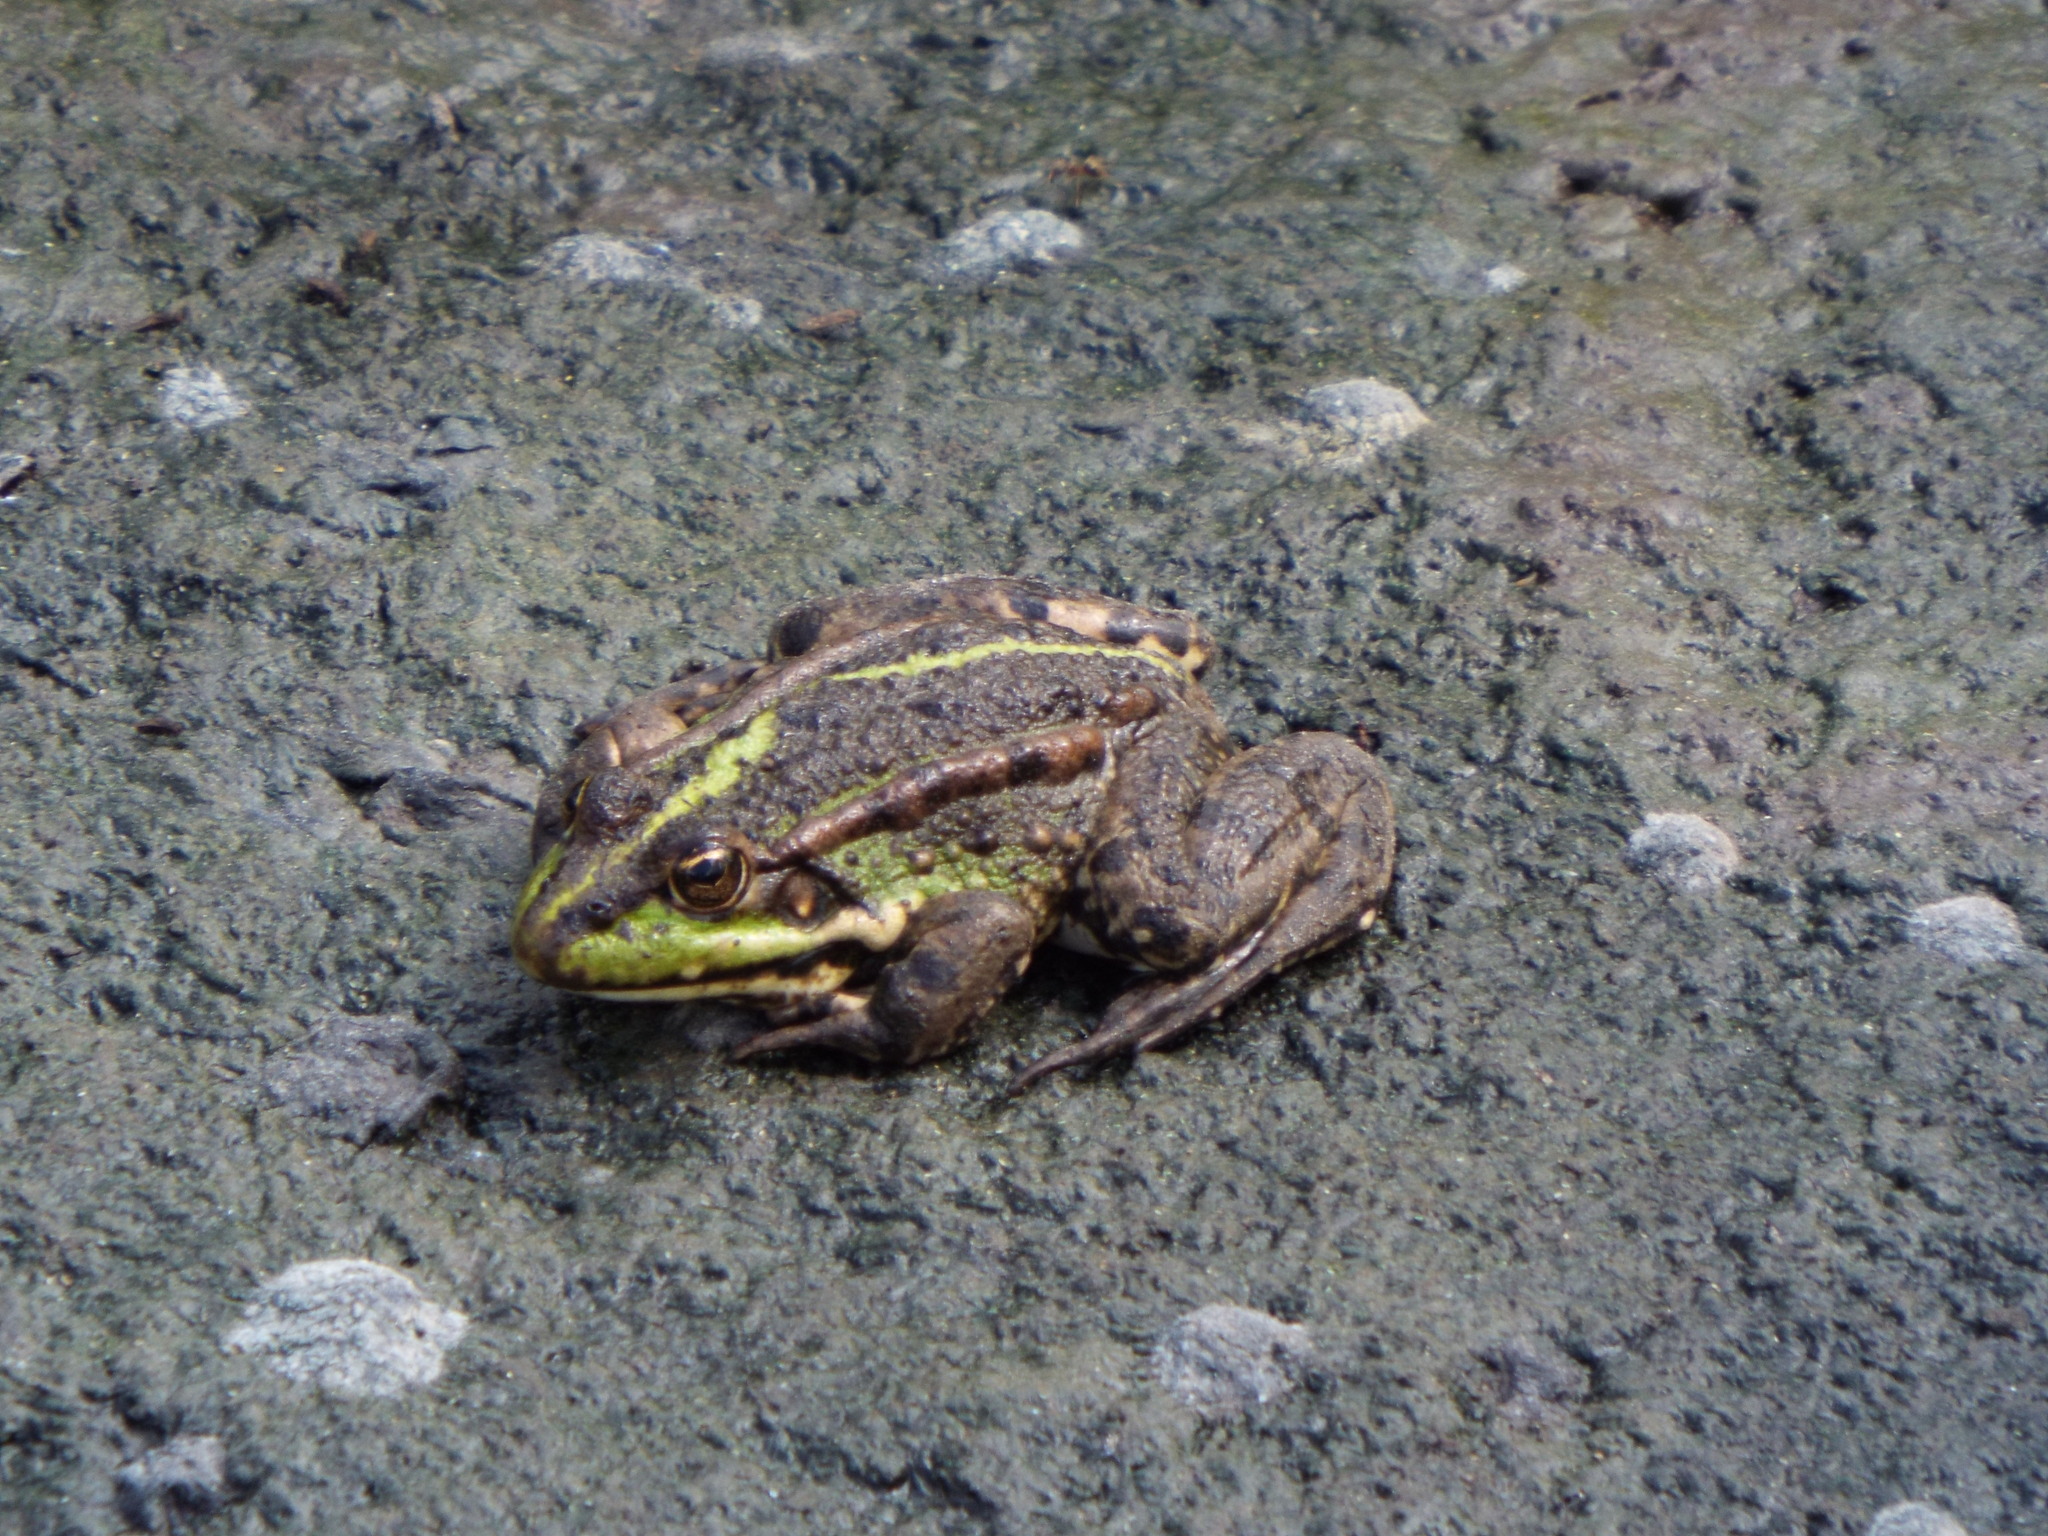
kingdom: Animalia
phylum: Chordata
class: Amphibia
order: Anura
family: Ranidae
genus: Pelophylax
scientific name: Pelophylax ridibundus
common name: Marsh frog
